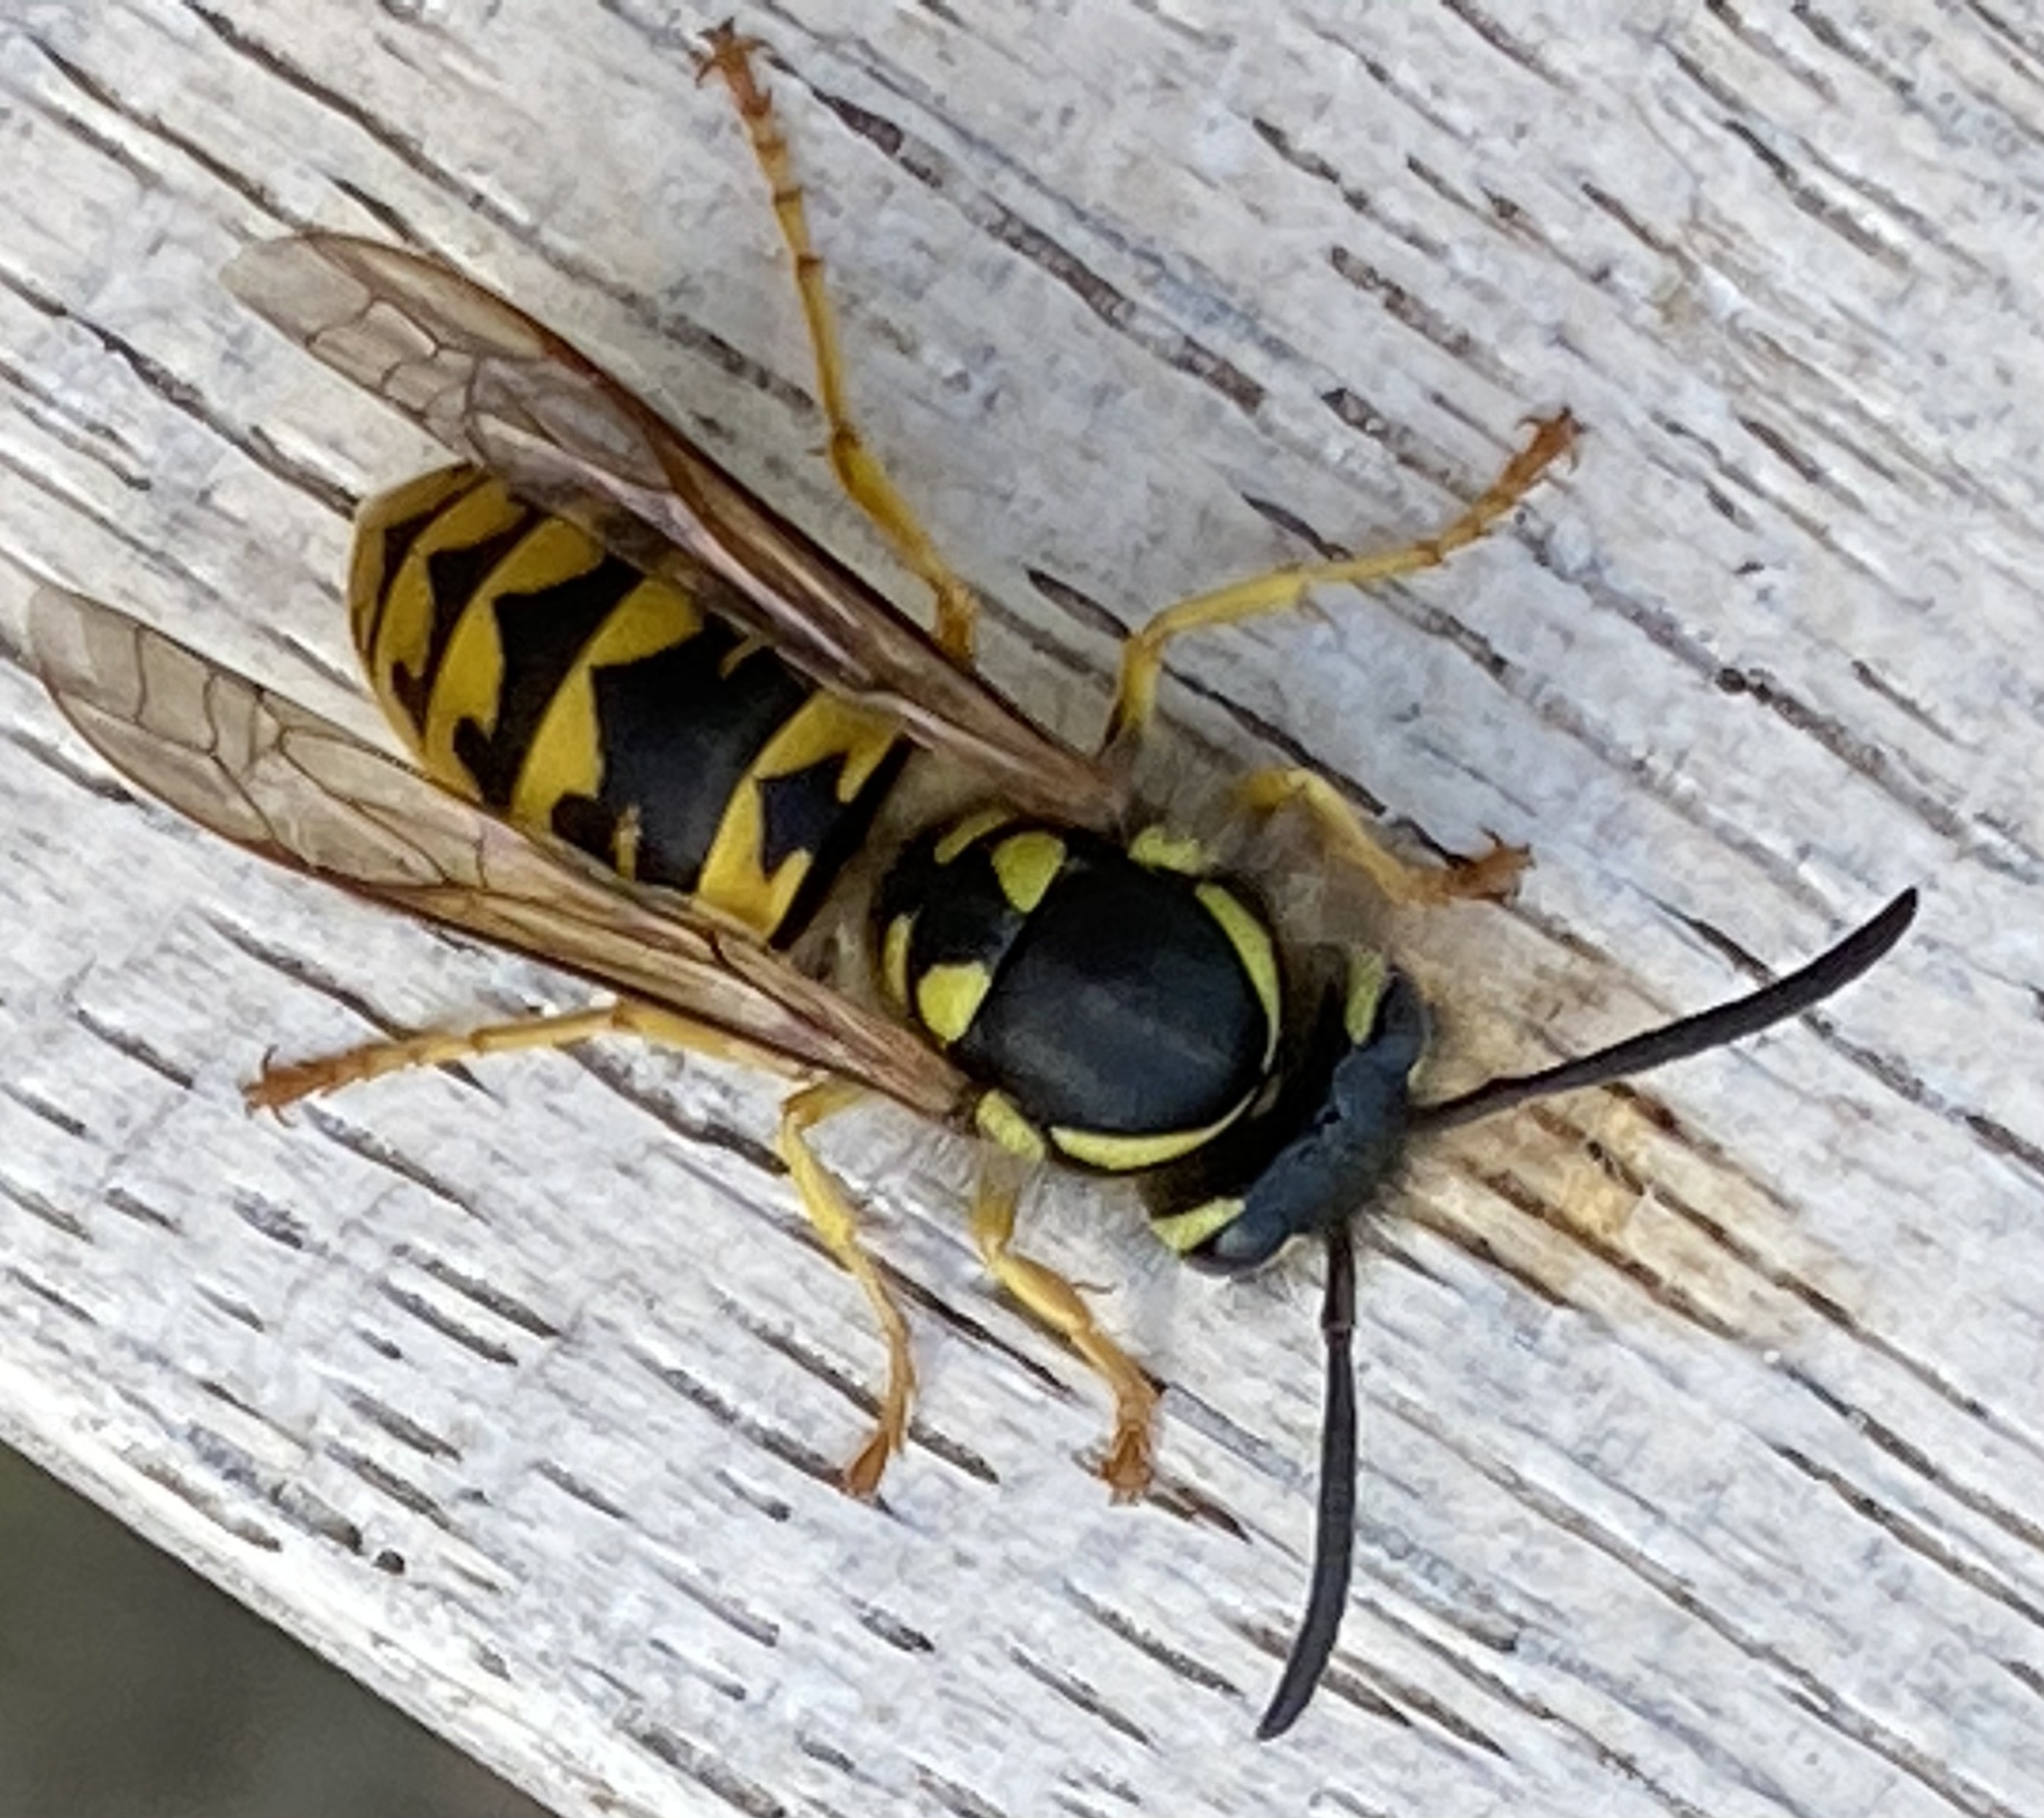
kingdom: Animalia
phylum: Arthropoda
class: Insecta
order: Hymenoptera
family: Vespidae
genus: Vespula
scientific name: Vespula germanica
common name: German wasp
